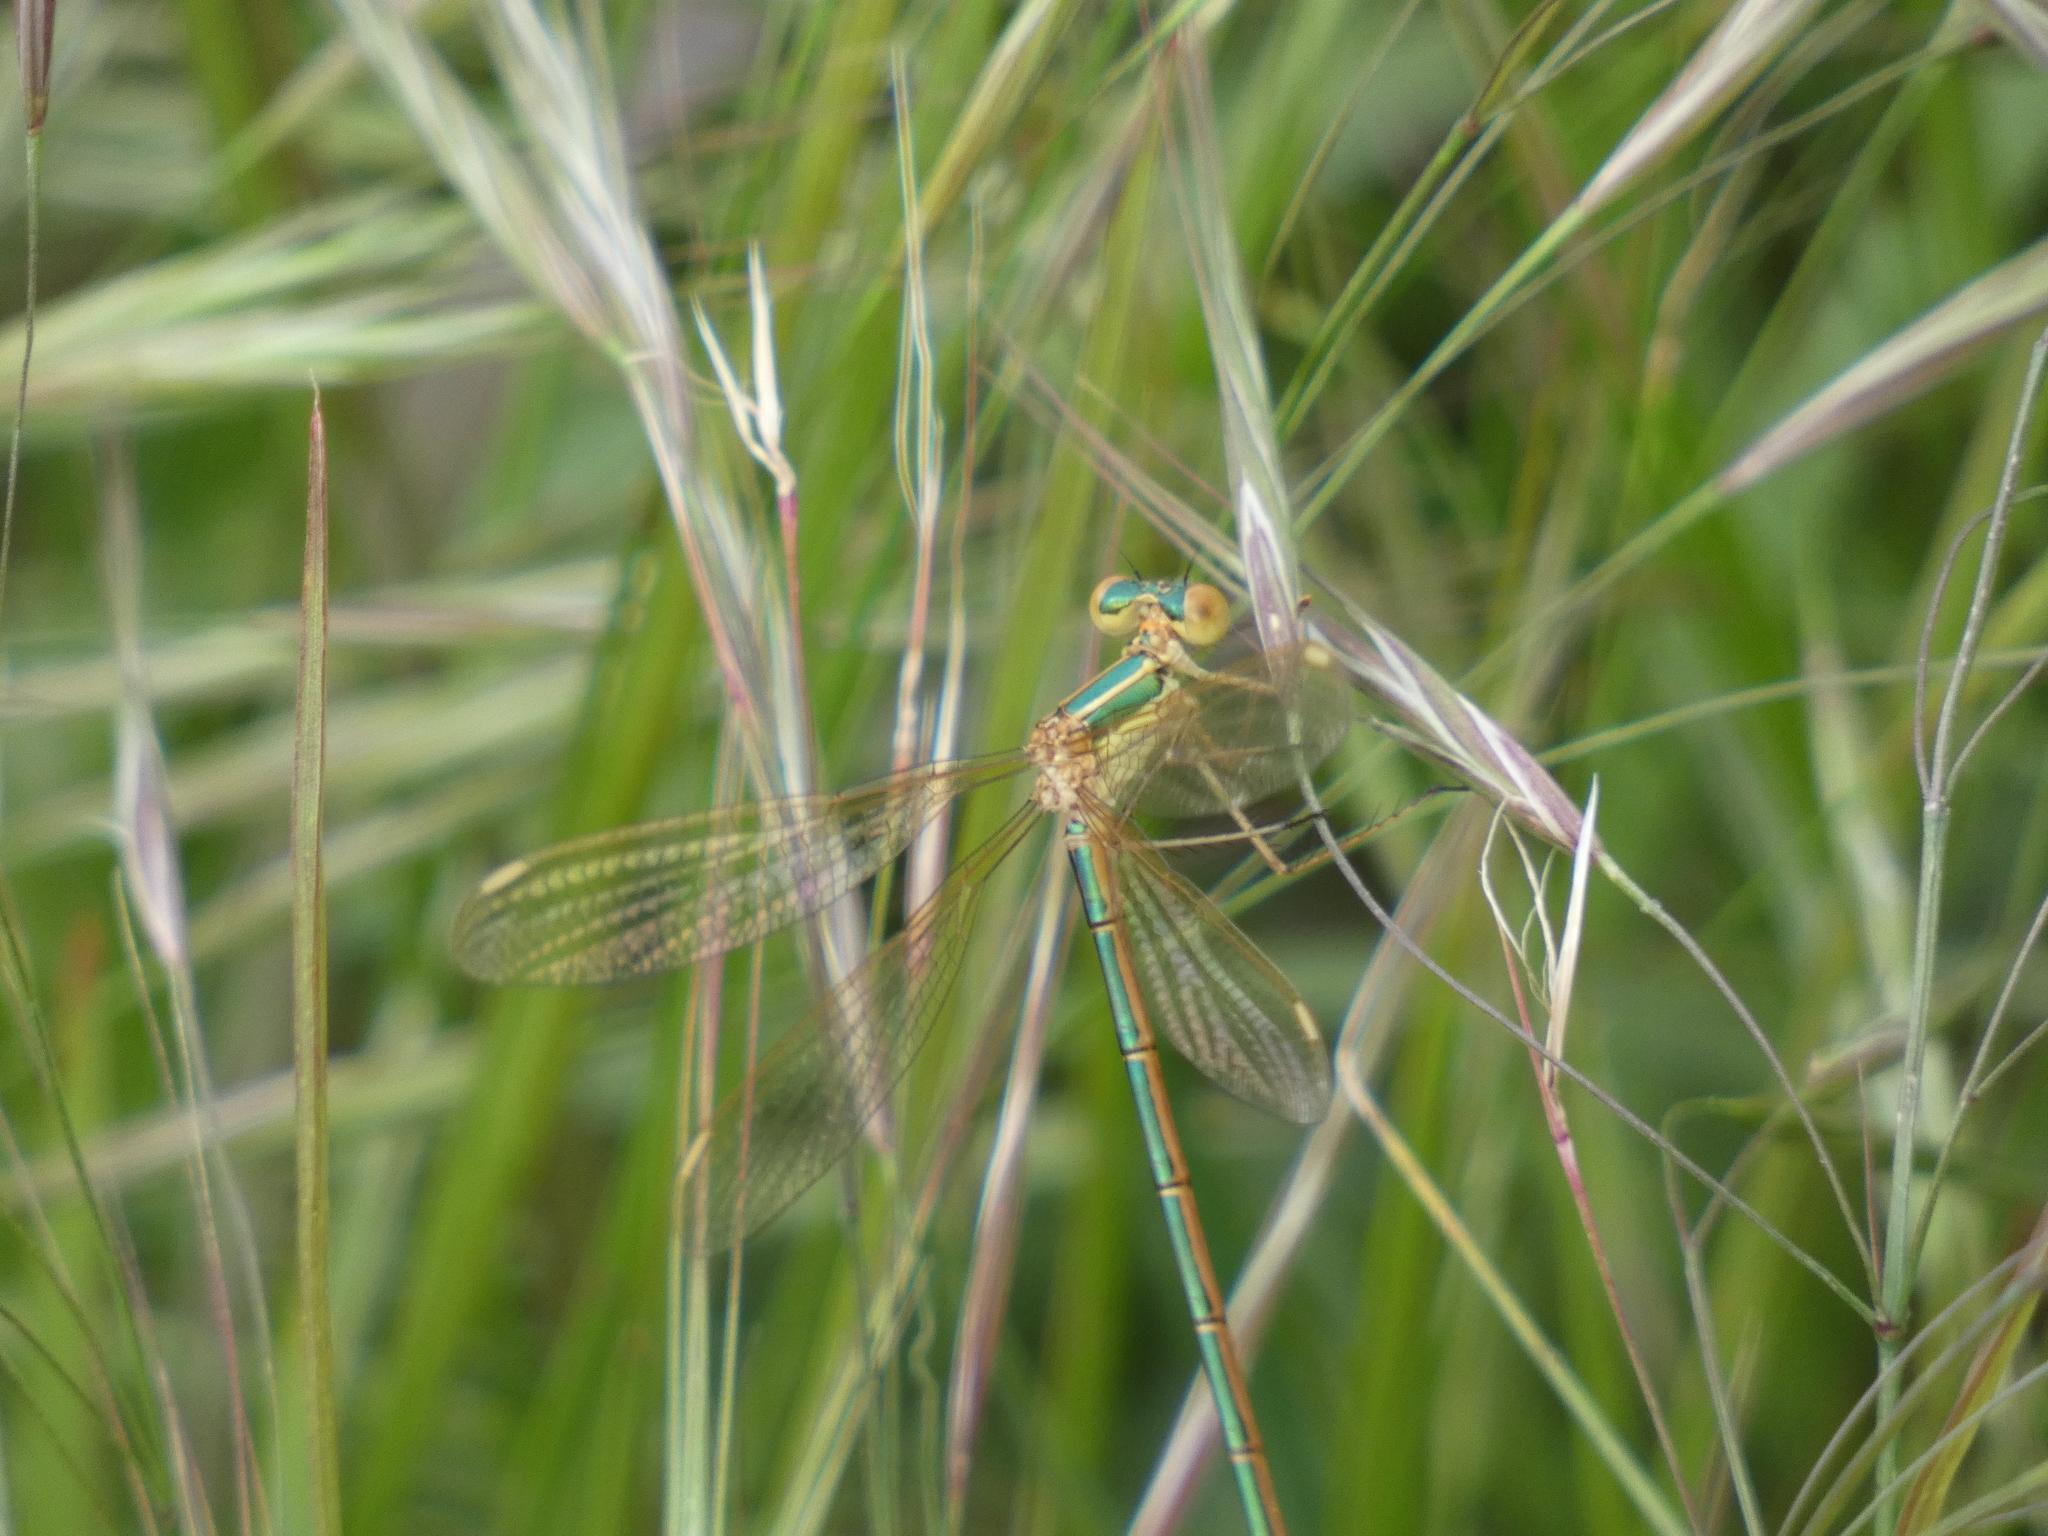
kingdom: Animalia
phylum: Arthropoda
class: Insecta
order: Odonata
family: Lestidae
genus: Lestes
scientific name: Lestes barbarus
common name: Migrant spreadwing
